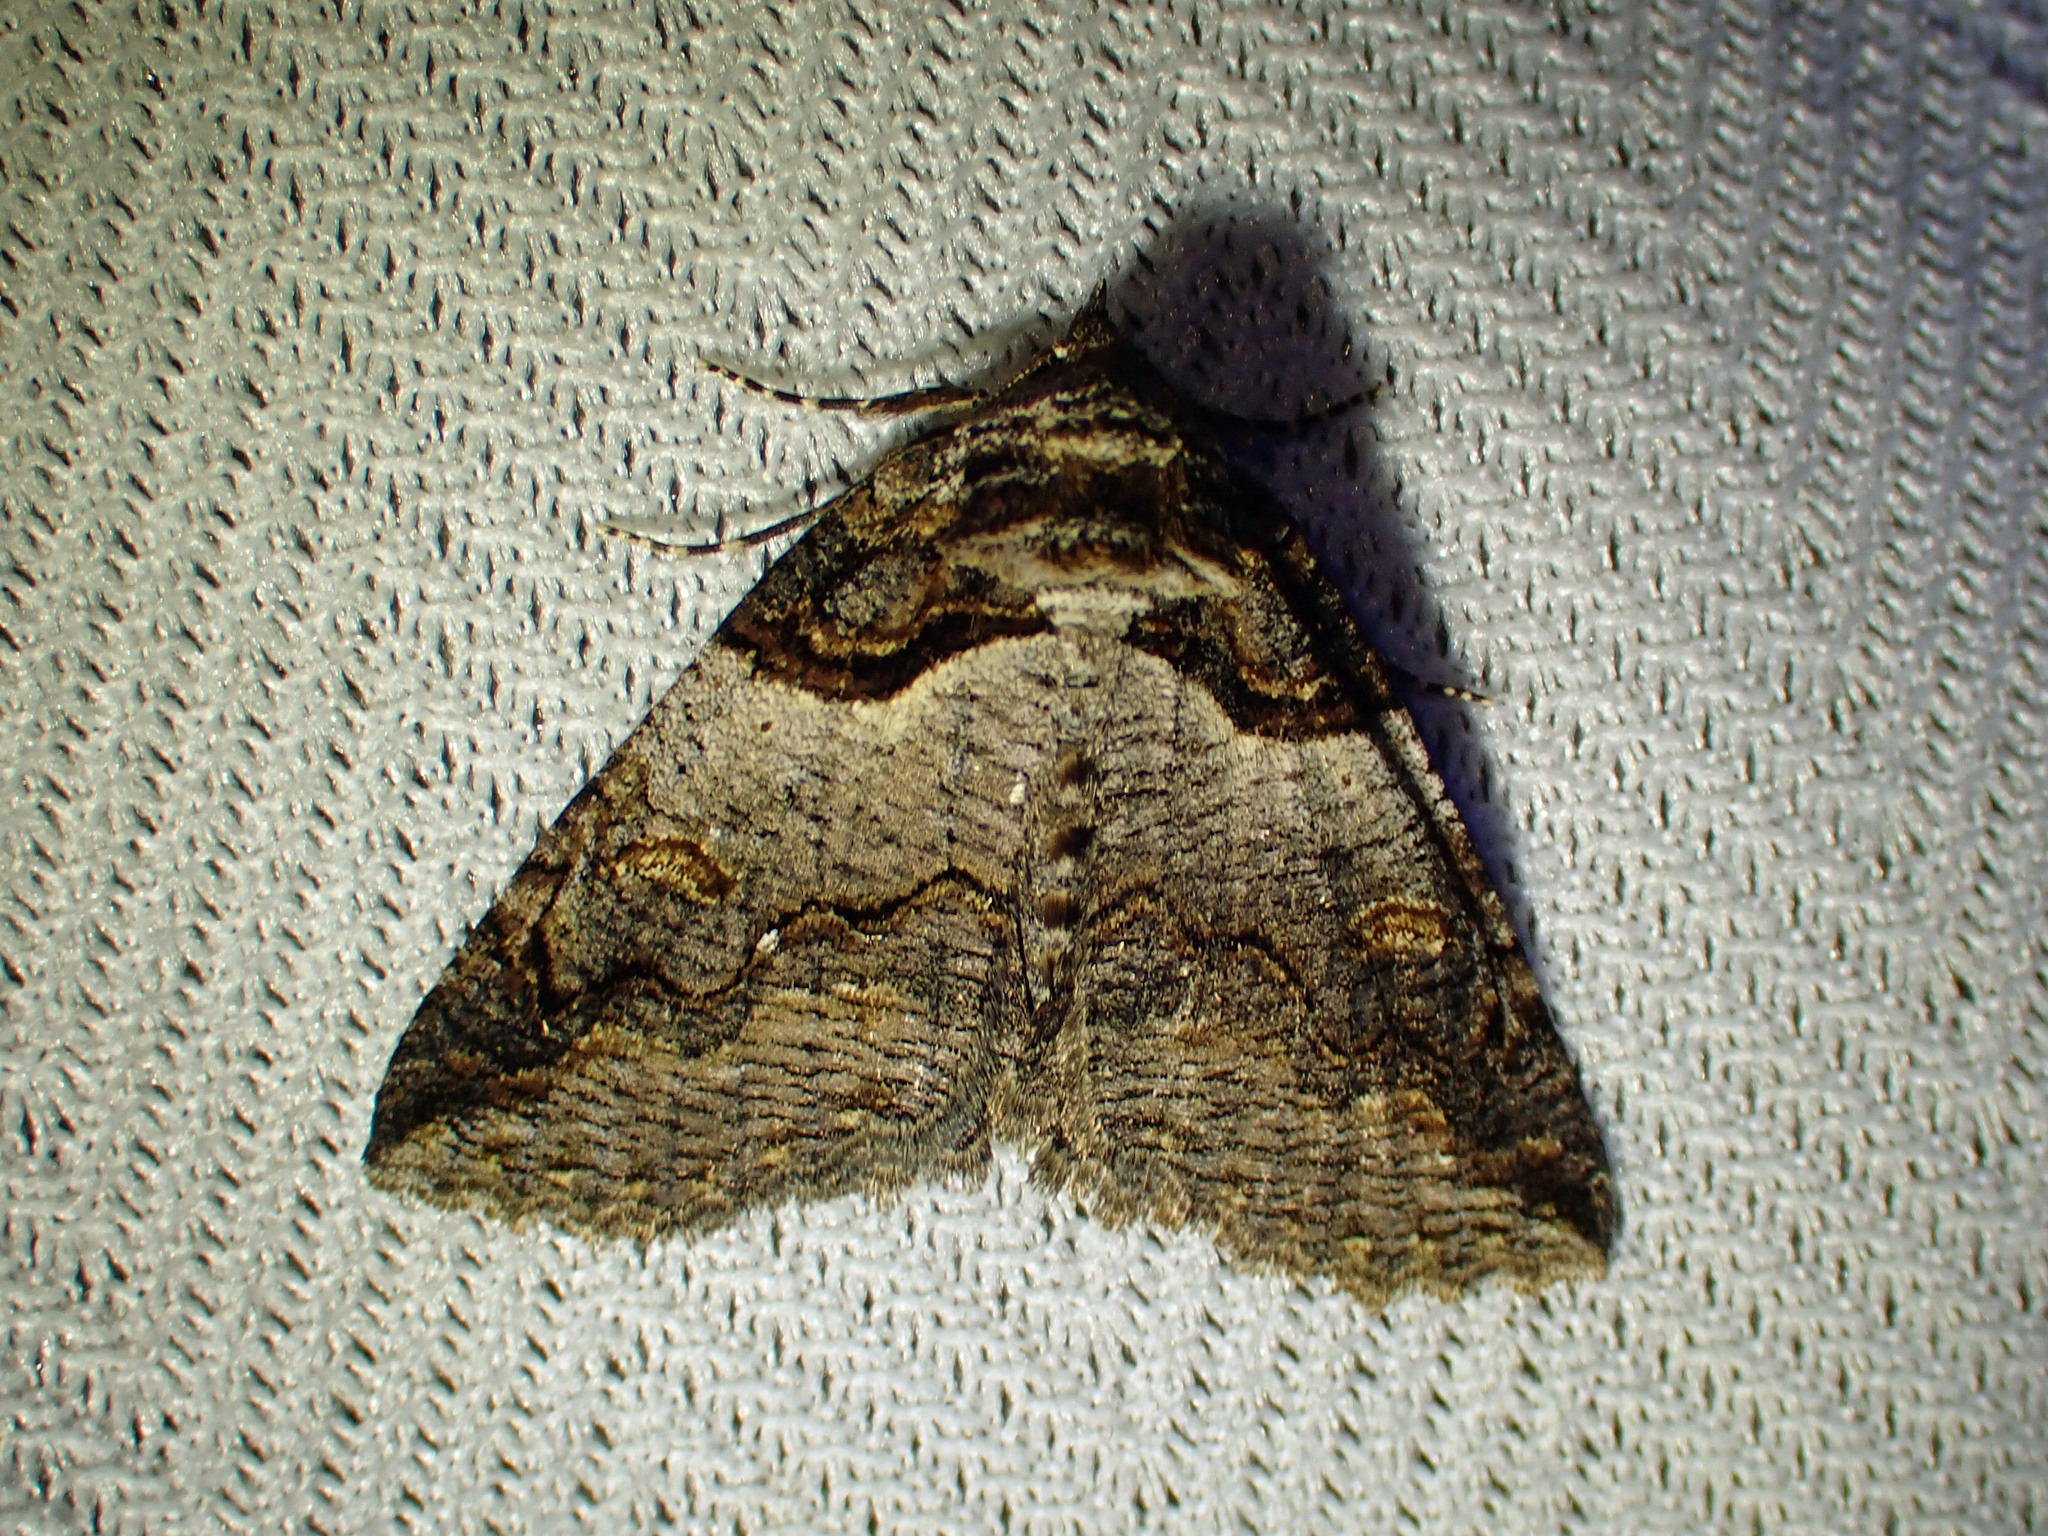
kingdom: Animalia
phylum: Arthropoda
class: Insecta
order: Lepidoptera
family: Erebidae
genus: Zale
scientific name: Zale intenta
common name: Intent zale moth
